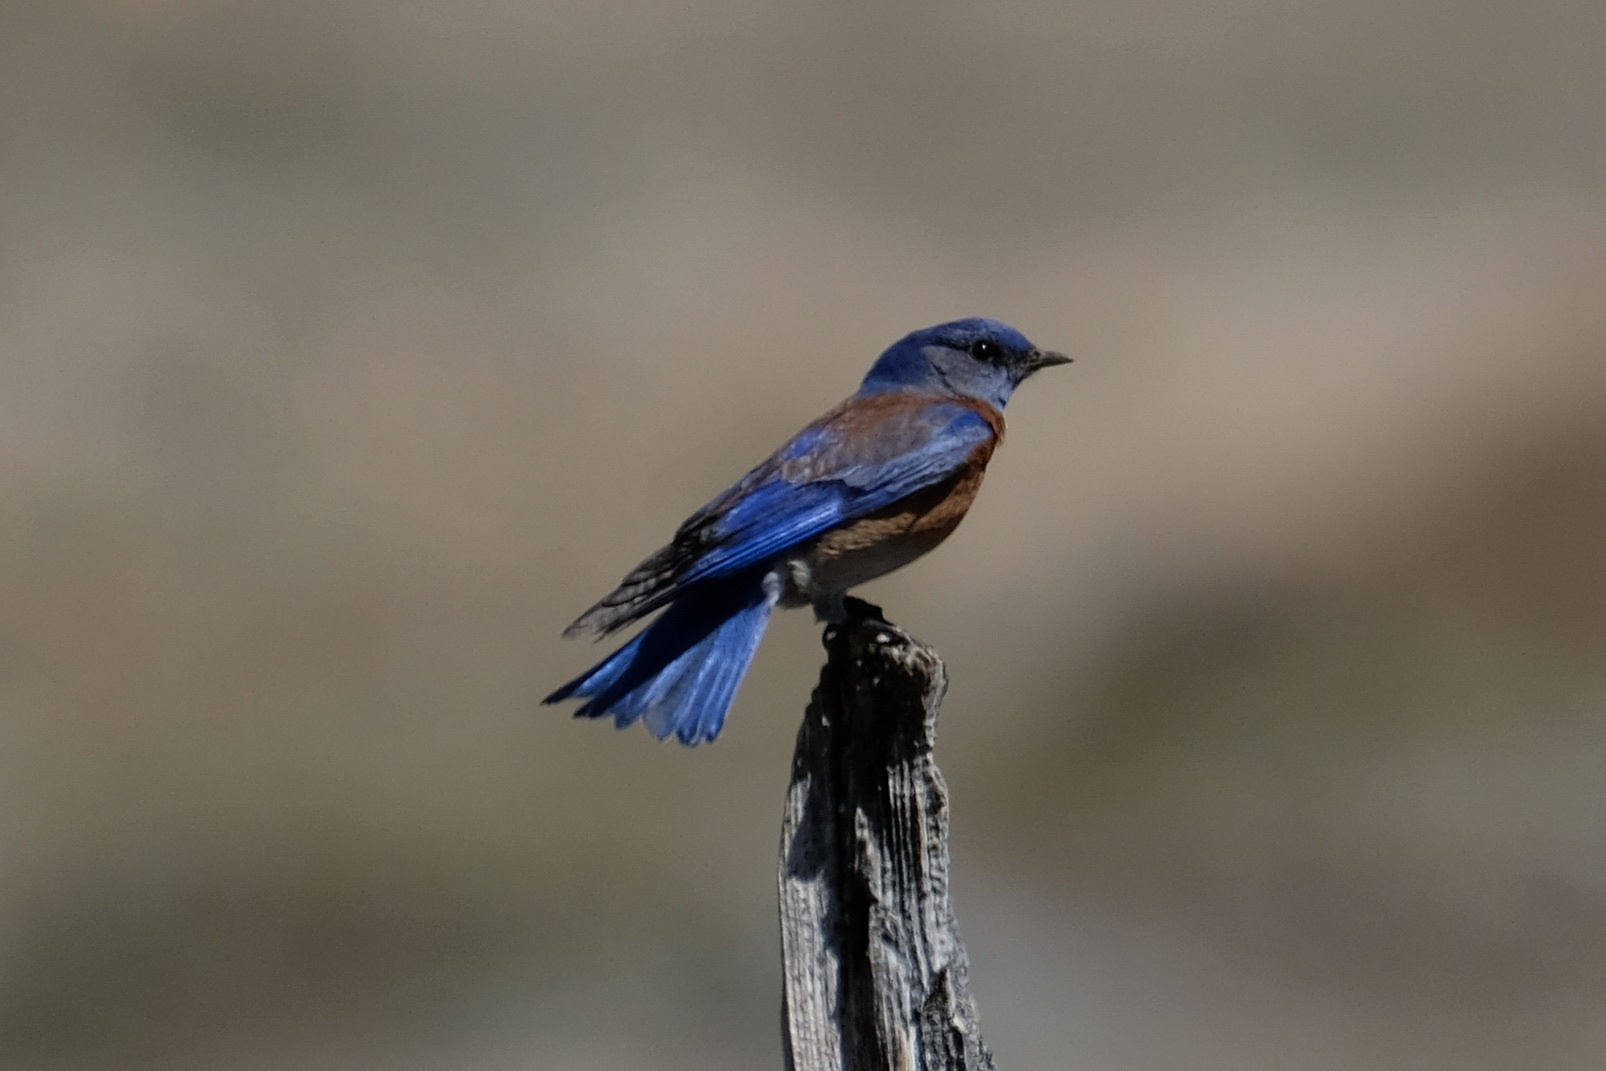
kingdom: Animalia
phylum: Chordata
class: Aves
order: Passeriformes
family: Turdidae
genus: Sialia
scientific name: Sialia mexicana
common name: Western bluebird
